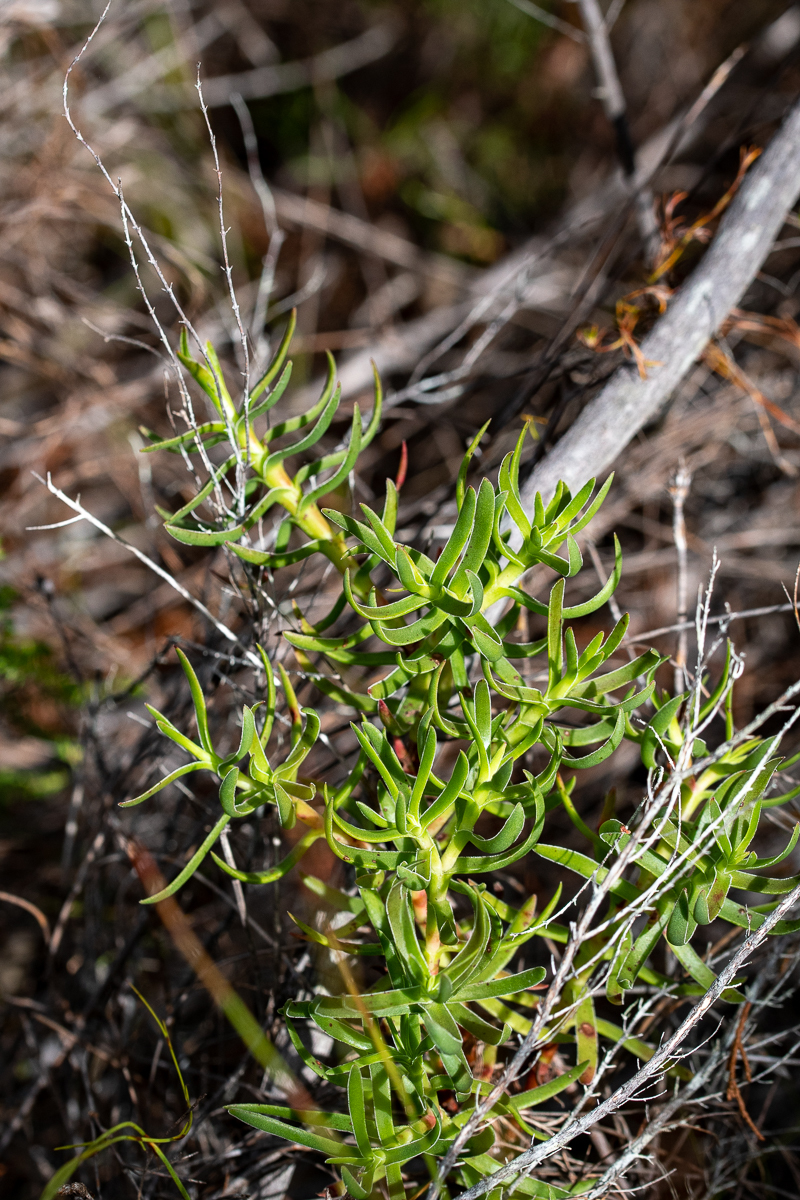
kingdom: Plantae
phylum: Tracheophyta
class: Magnoliopsida
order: Saxifragales
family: Crassulaceae
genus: Crassula
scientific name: Crassula fascicularis
